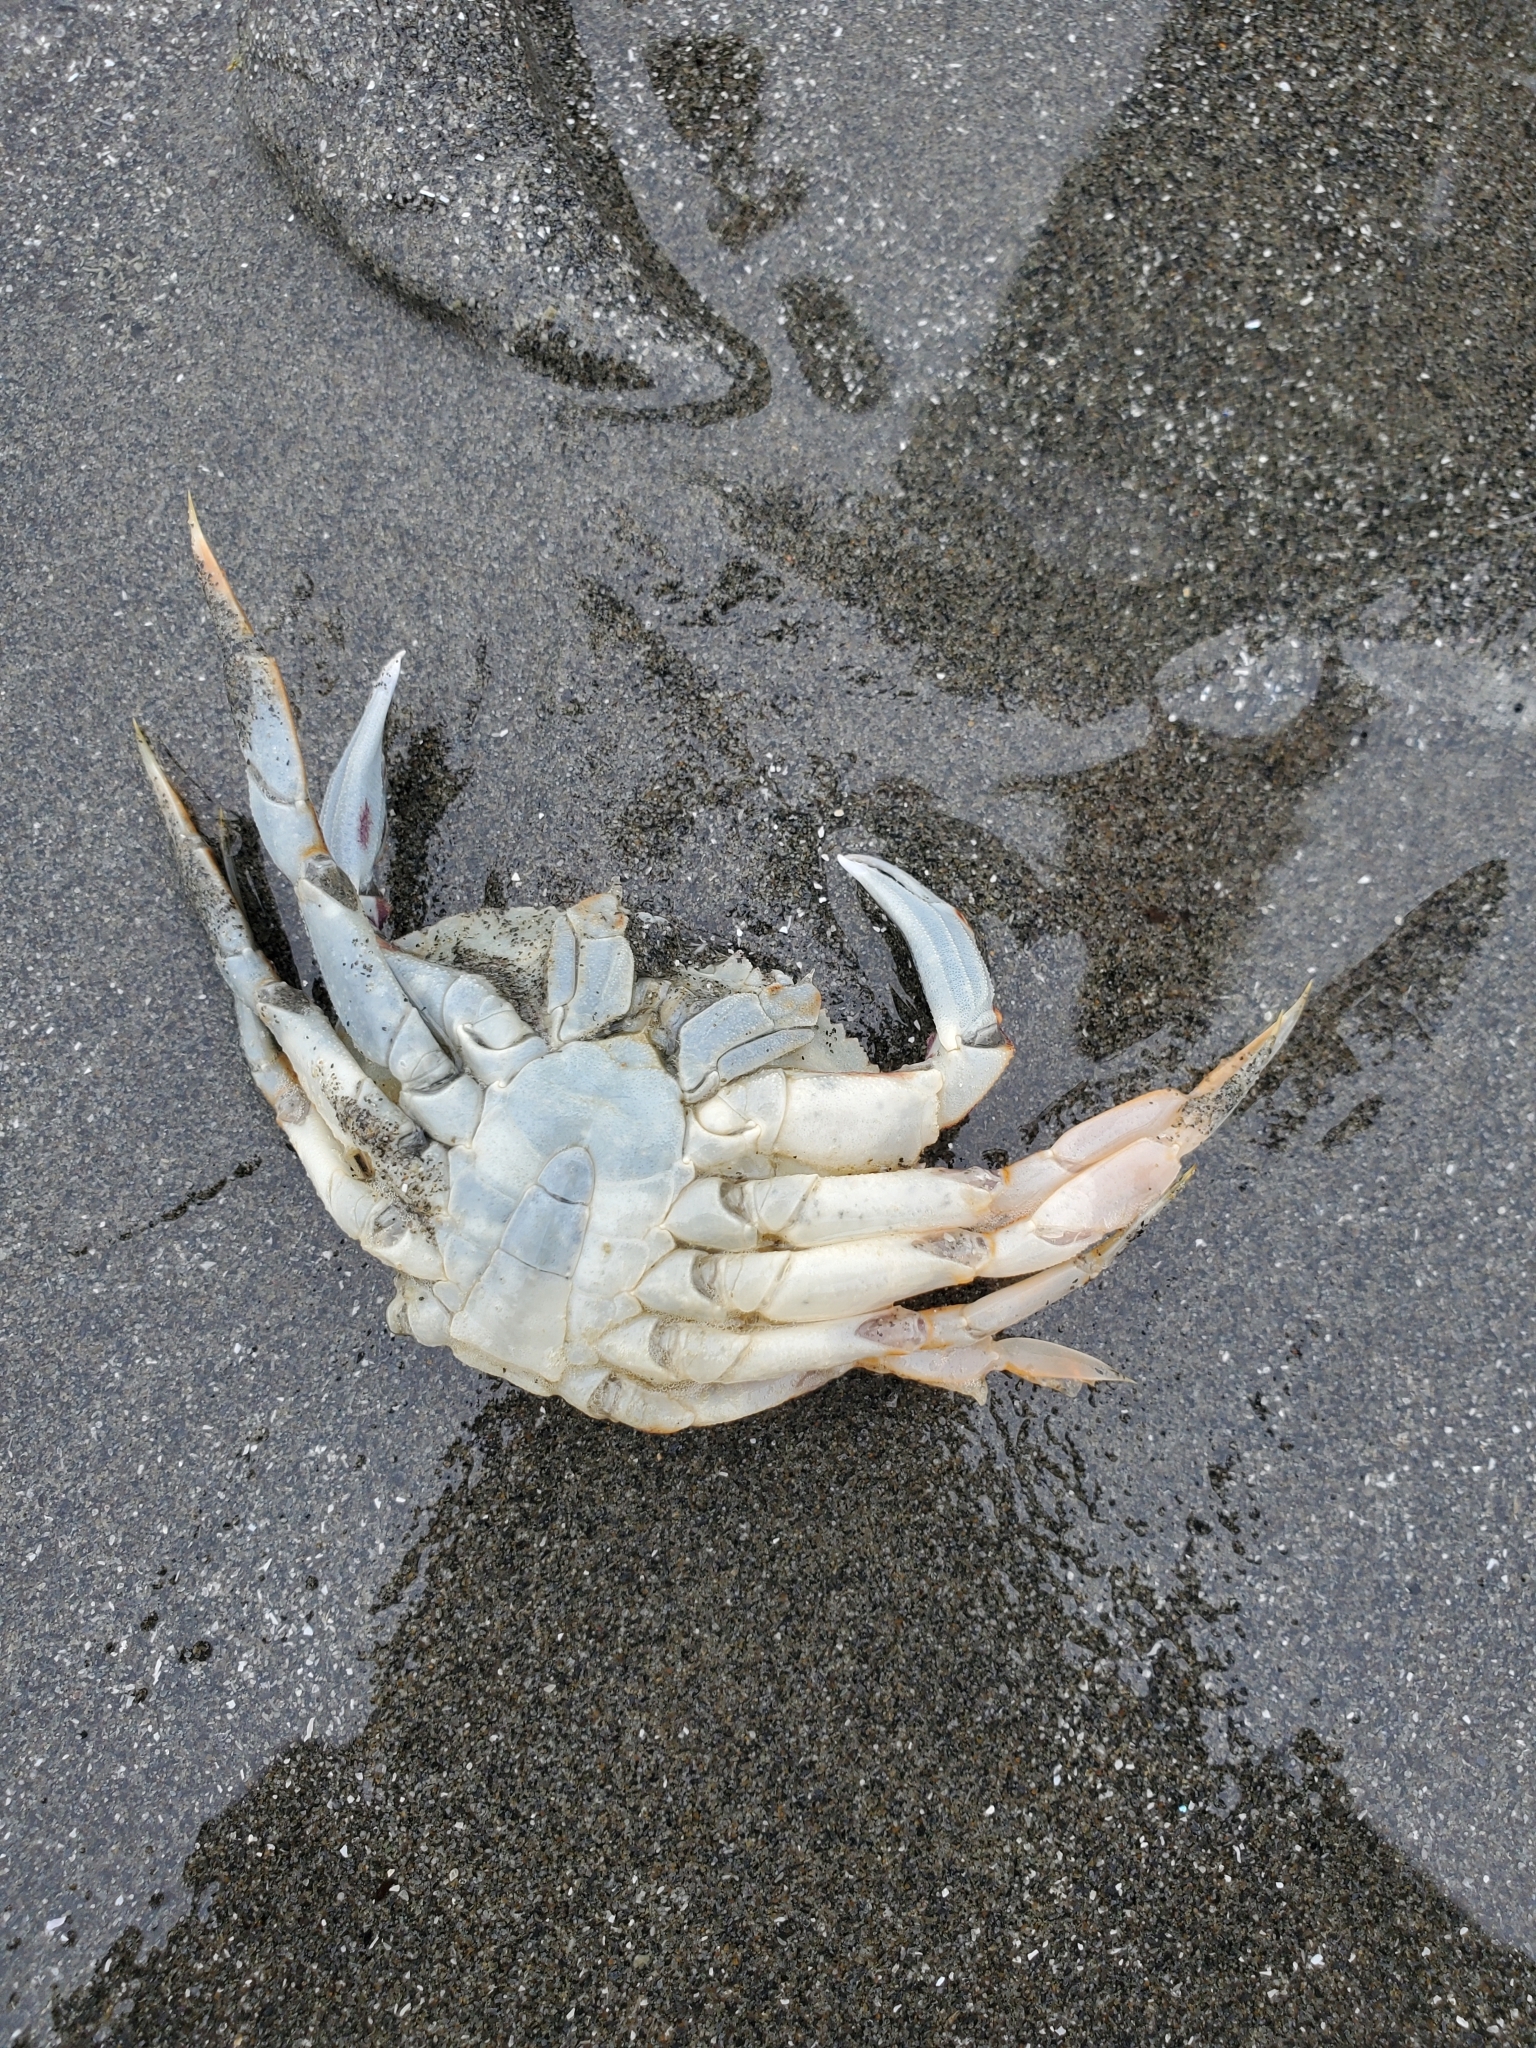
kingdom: Animalia
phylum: Arthropoda
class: Malacostraca
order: Decapoda
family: Cancridae
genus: Metacarcinus
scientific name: Metacarcinus magister
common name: Californian crab
